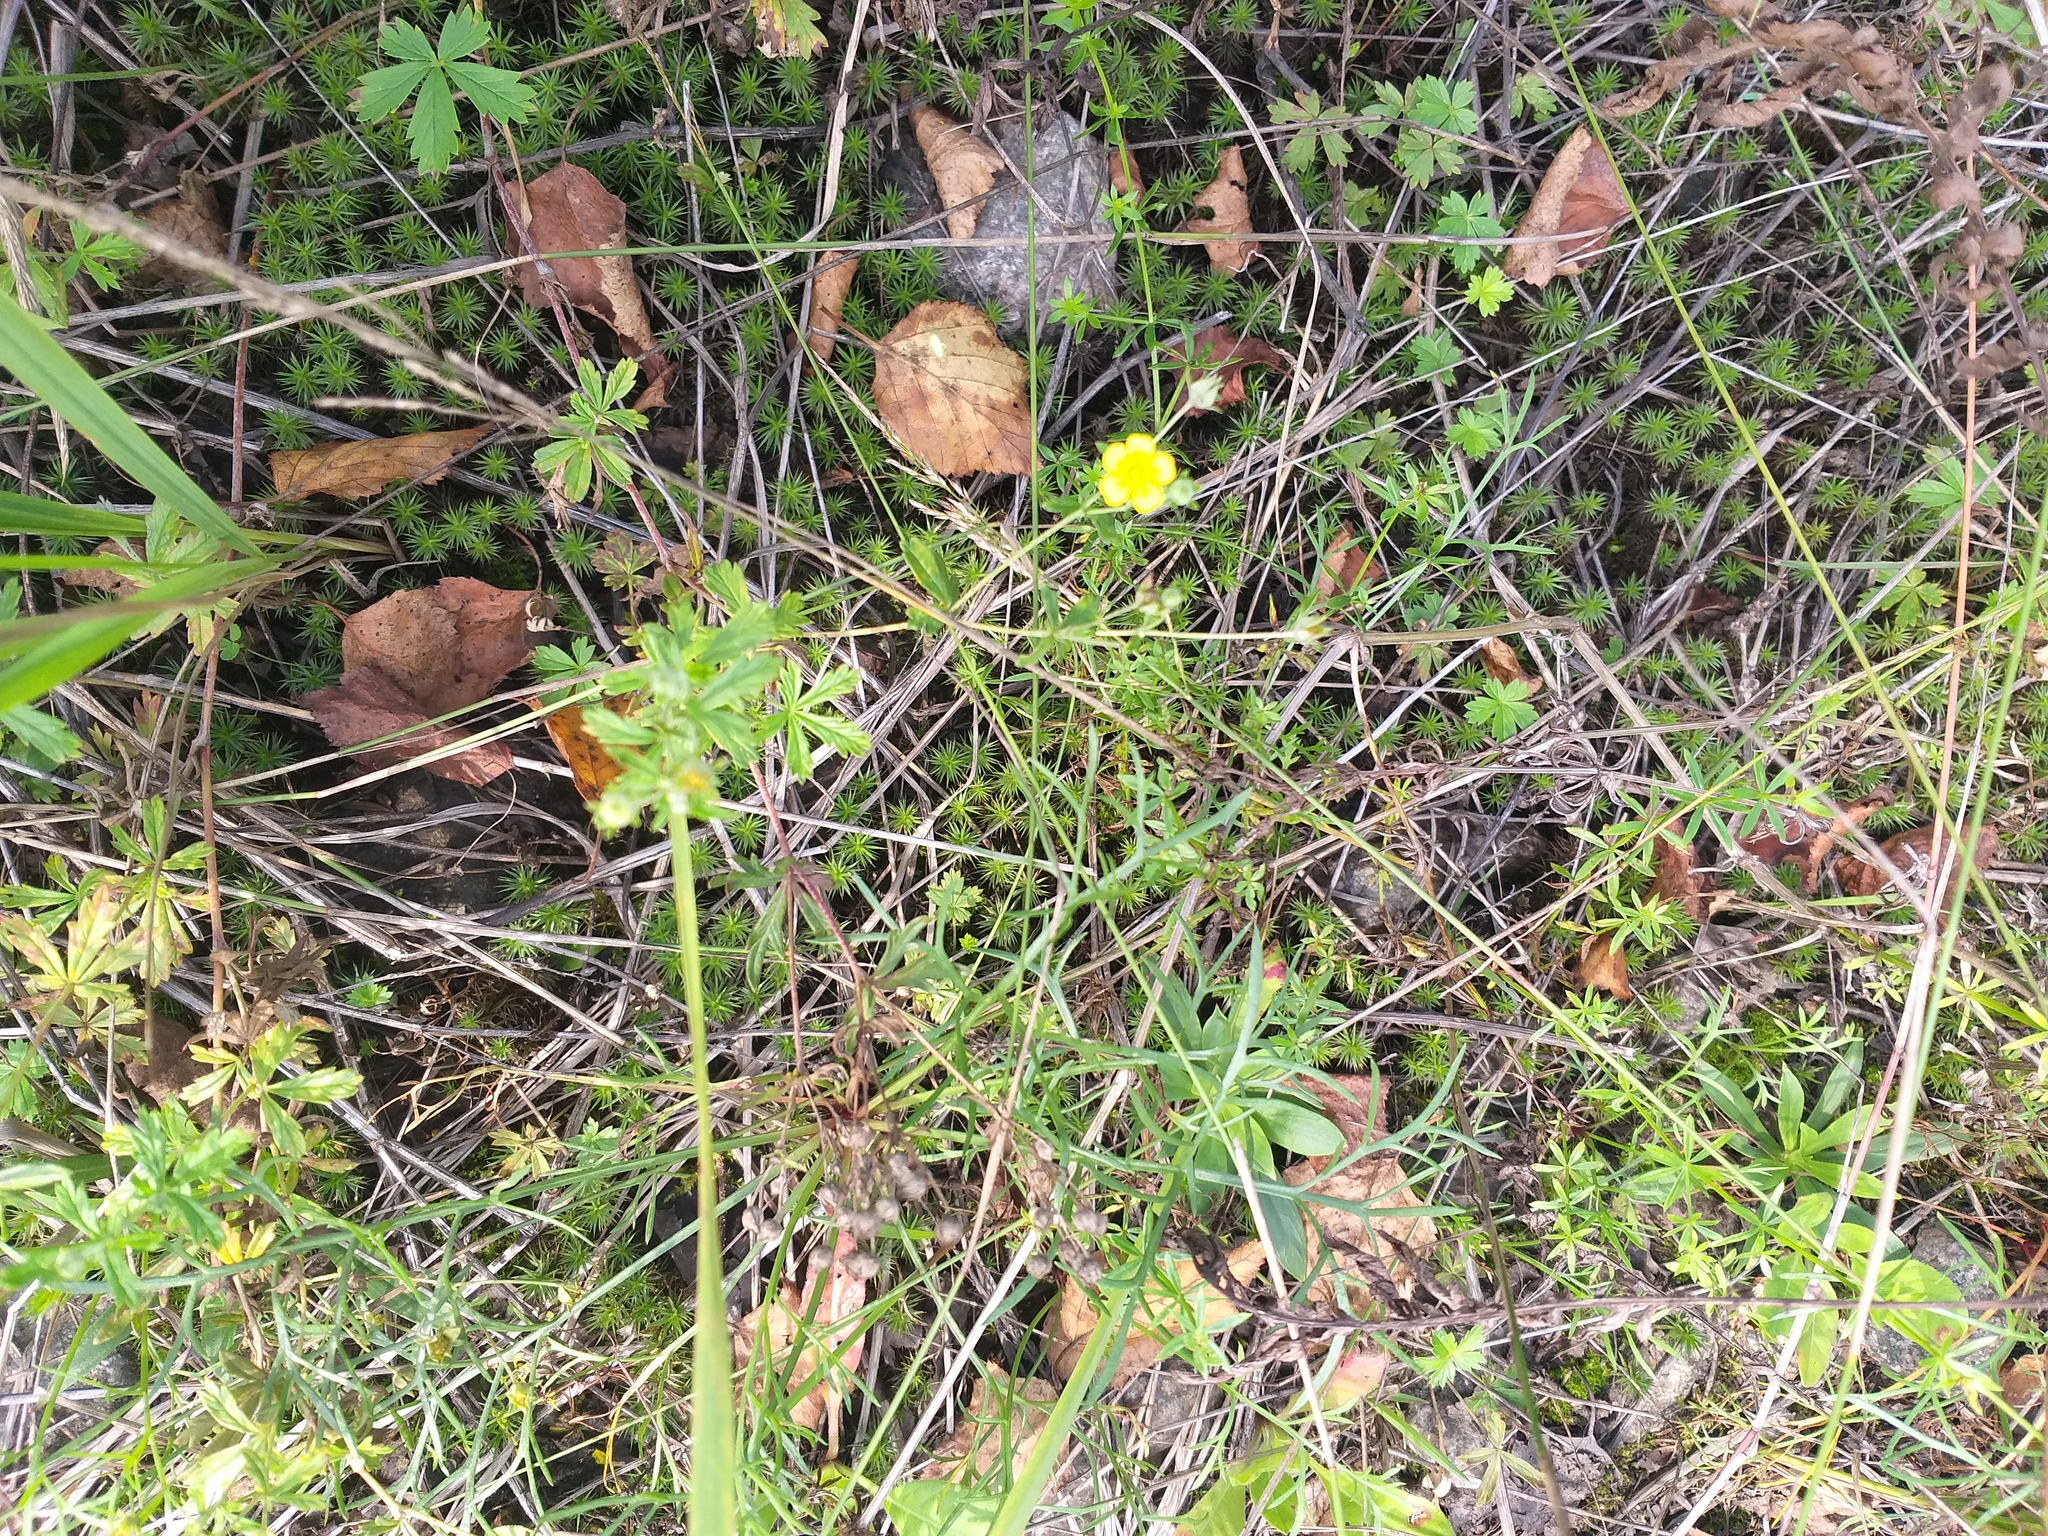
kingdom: Plantae
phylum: Tracheophyta
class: Magnoliopsida
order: Rosales
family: Rosaceae
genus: Potentilla
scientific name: Potentilla argentea
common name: Hoary cinquefoil
